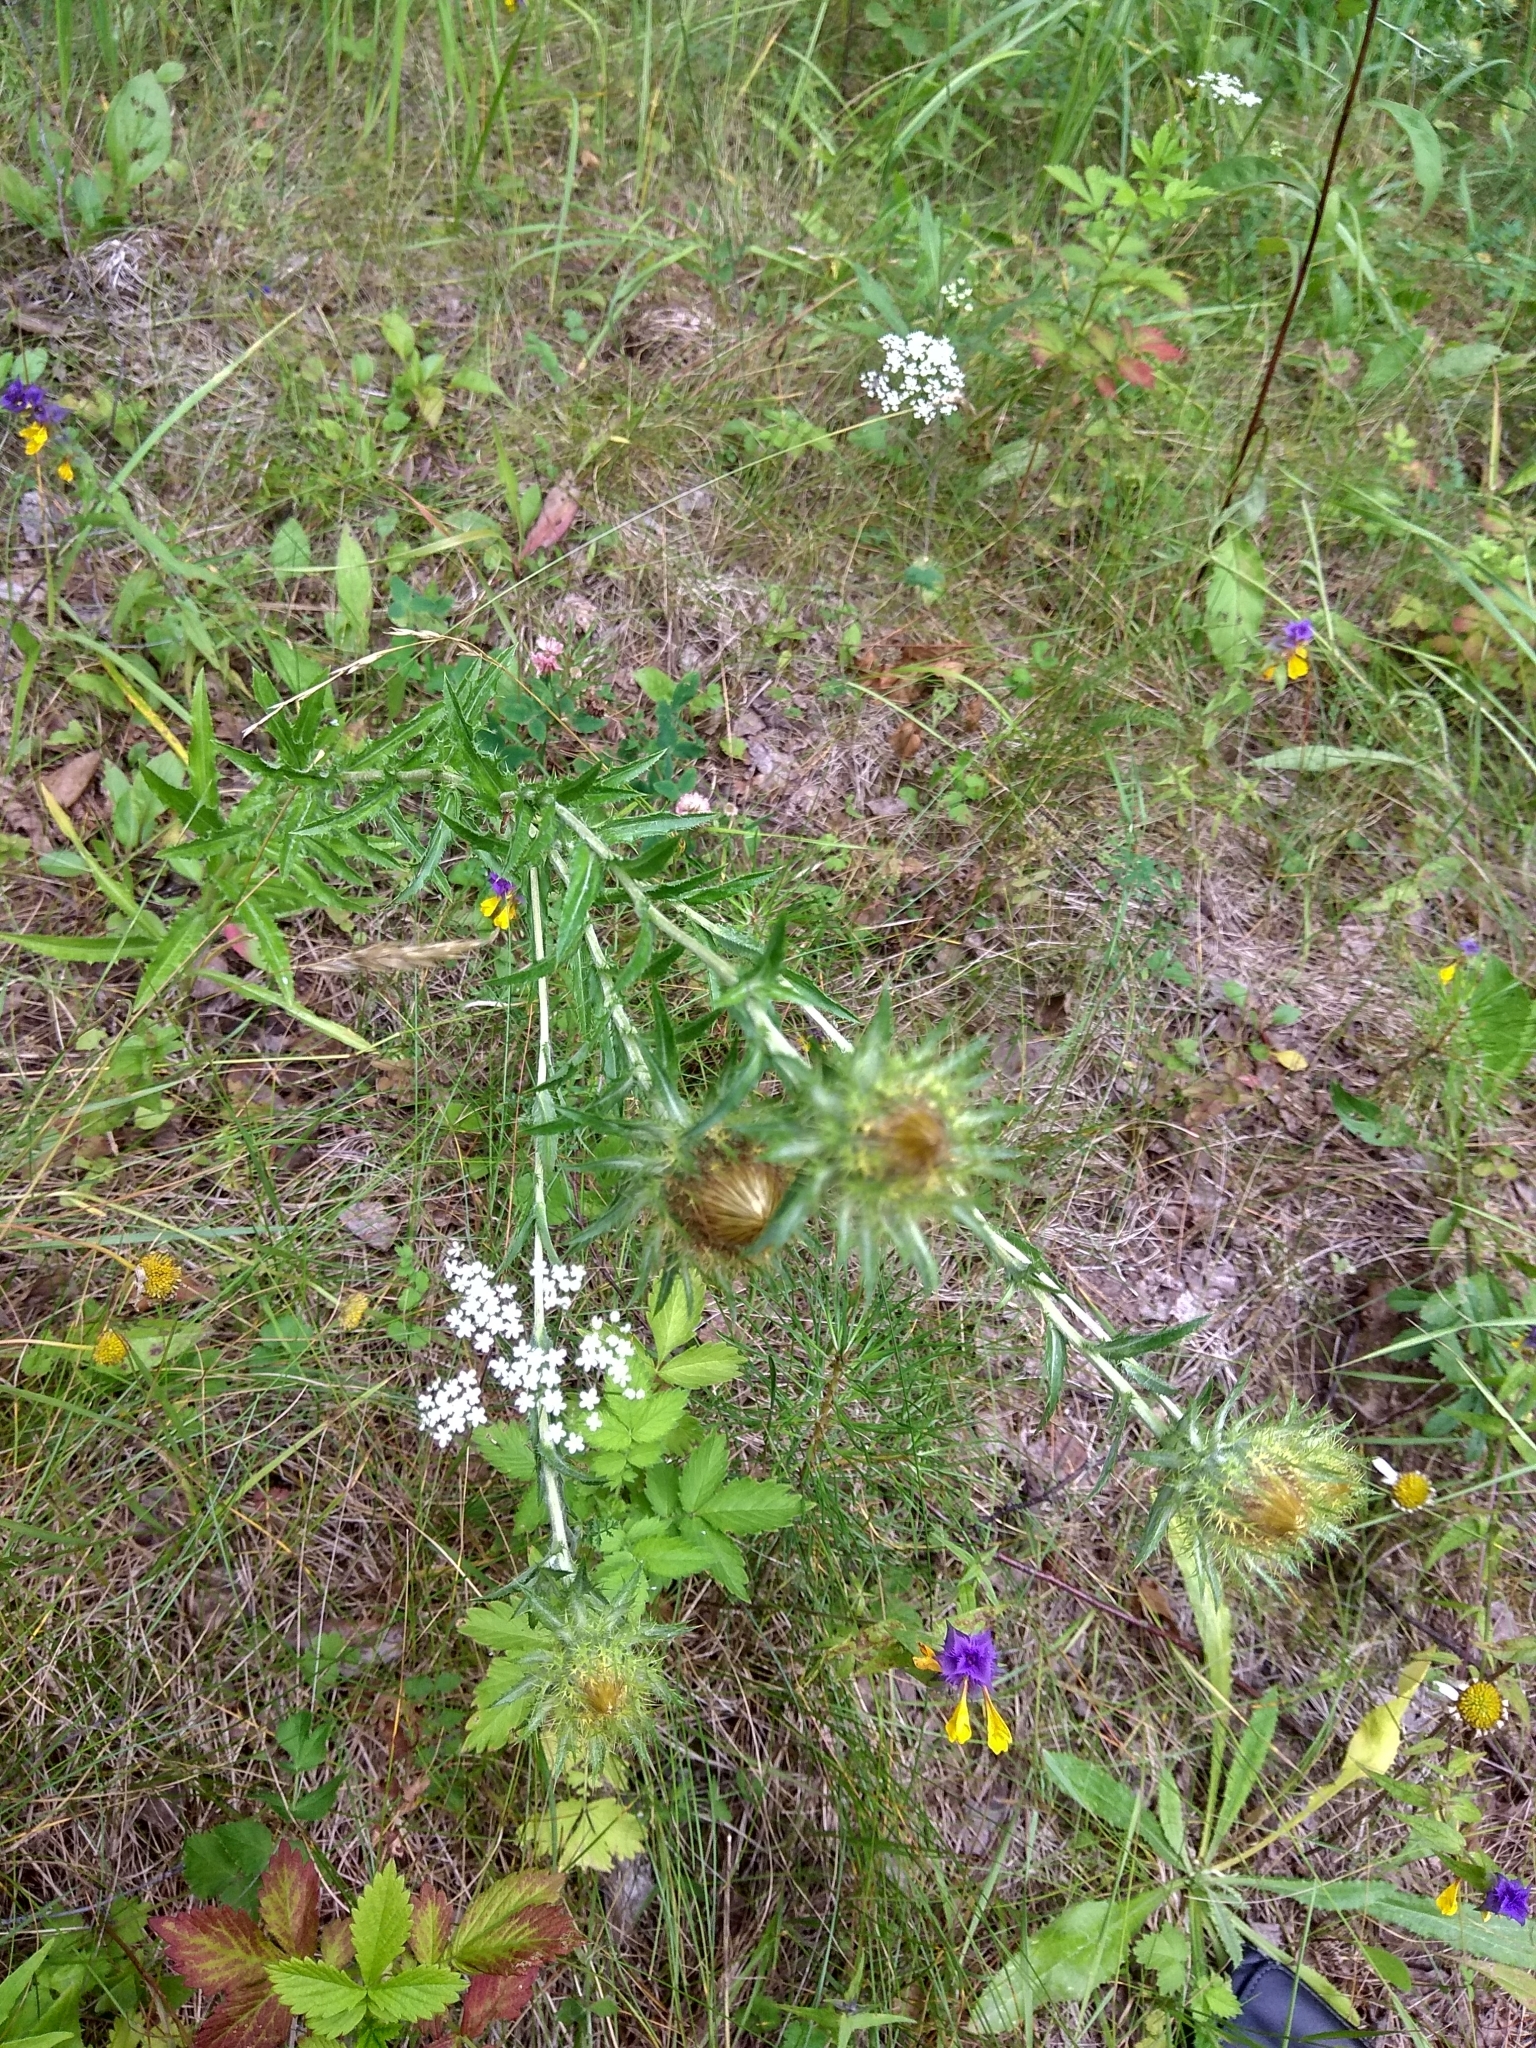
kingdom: Plantae
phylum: Tracheophyta
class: Magnoliopsida
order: Asterales
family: Asteraceae
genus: Carlina
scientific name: Carlina biebersteinii
